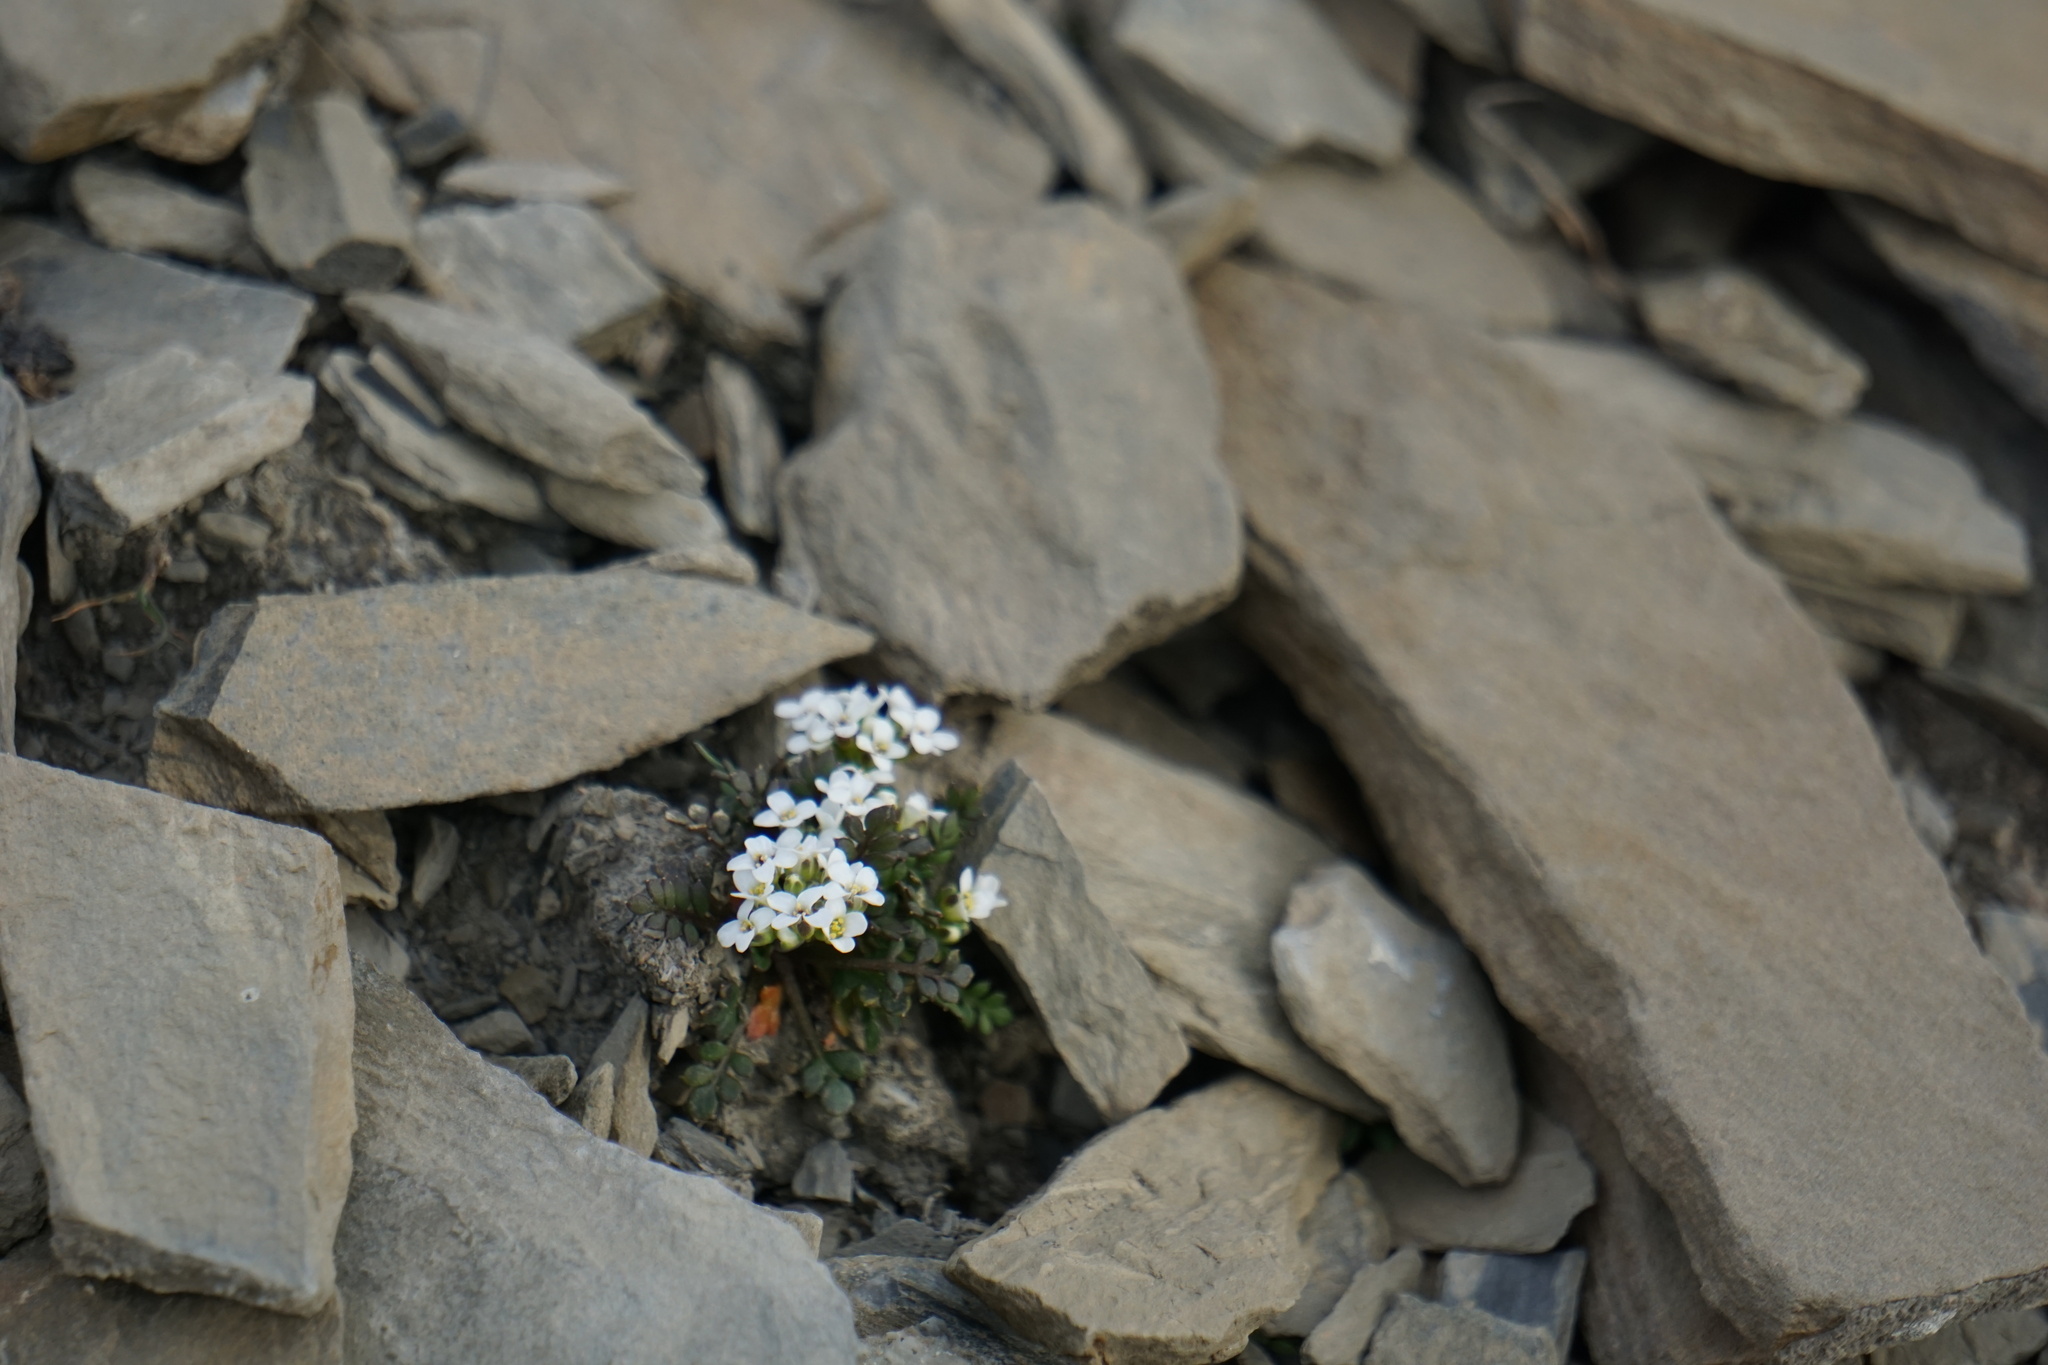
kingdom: Plantae
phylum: Tracheophyta
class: Magnoliopsida
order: Brassicales
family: Brassicaceae
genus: Hornungia
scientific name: Hornungia alpina
